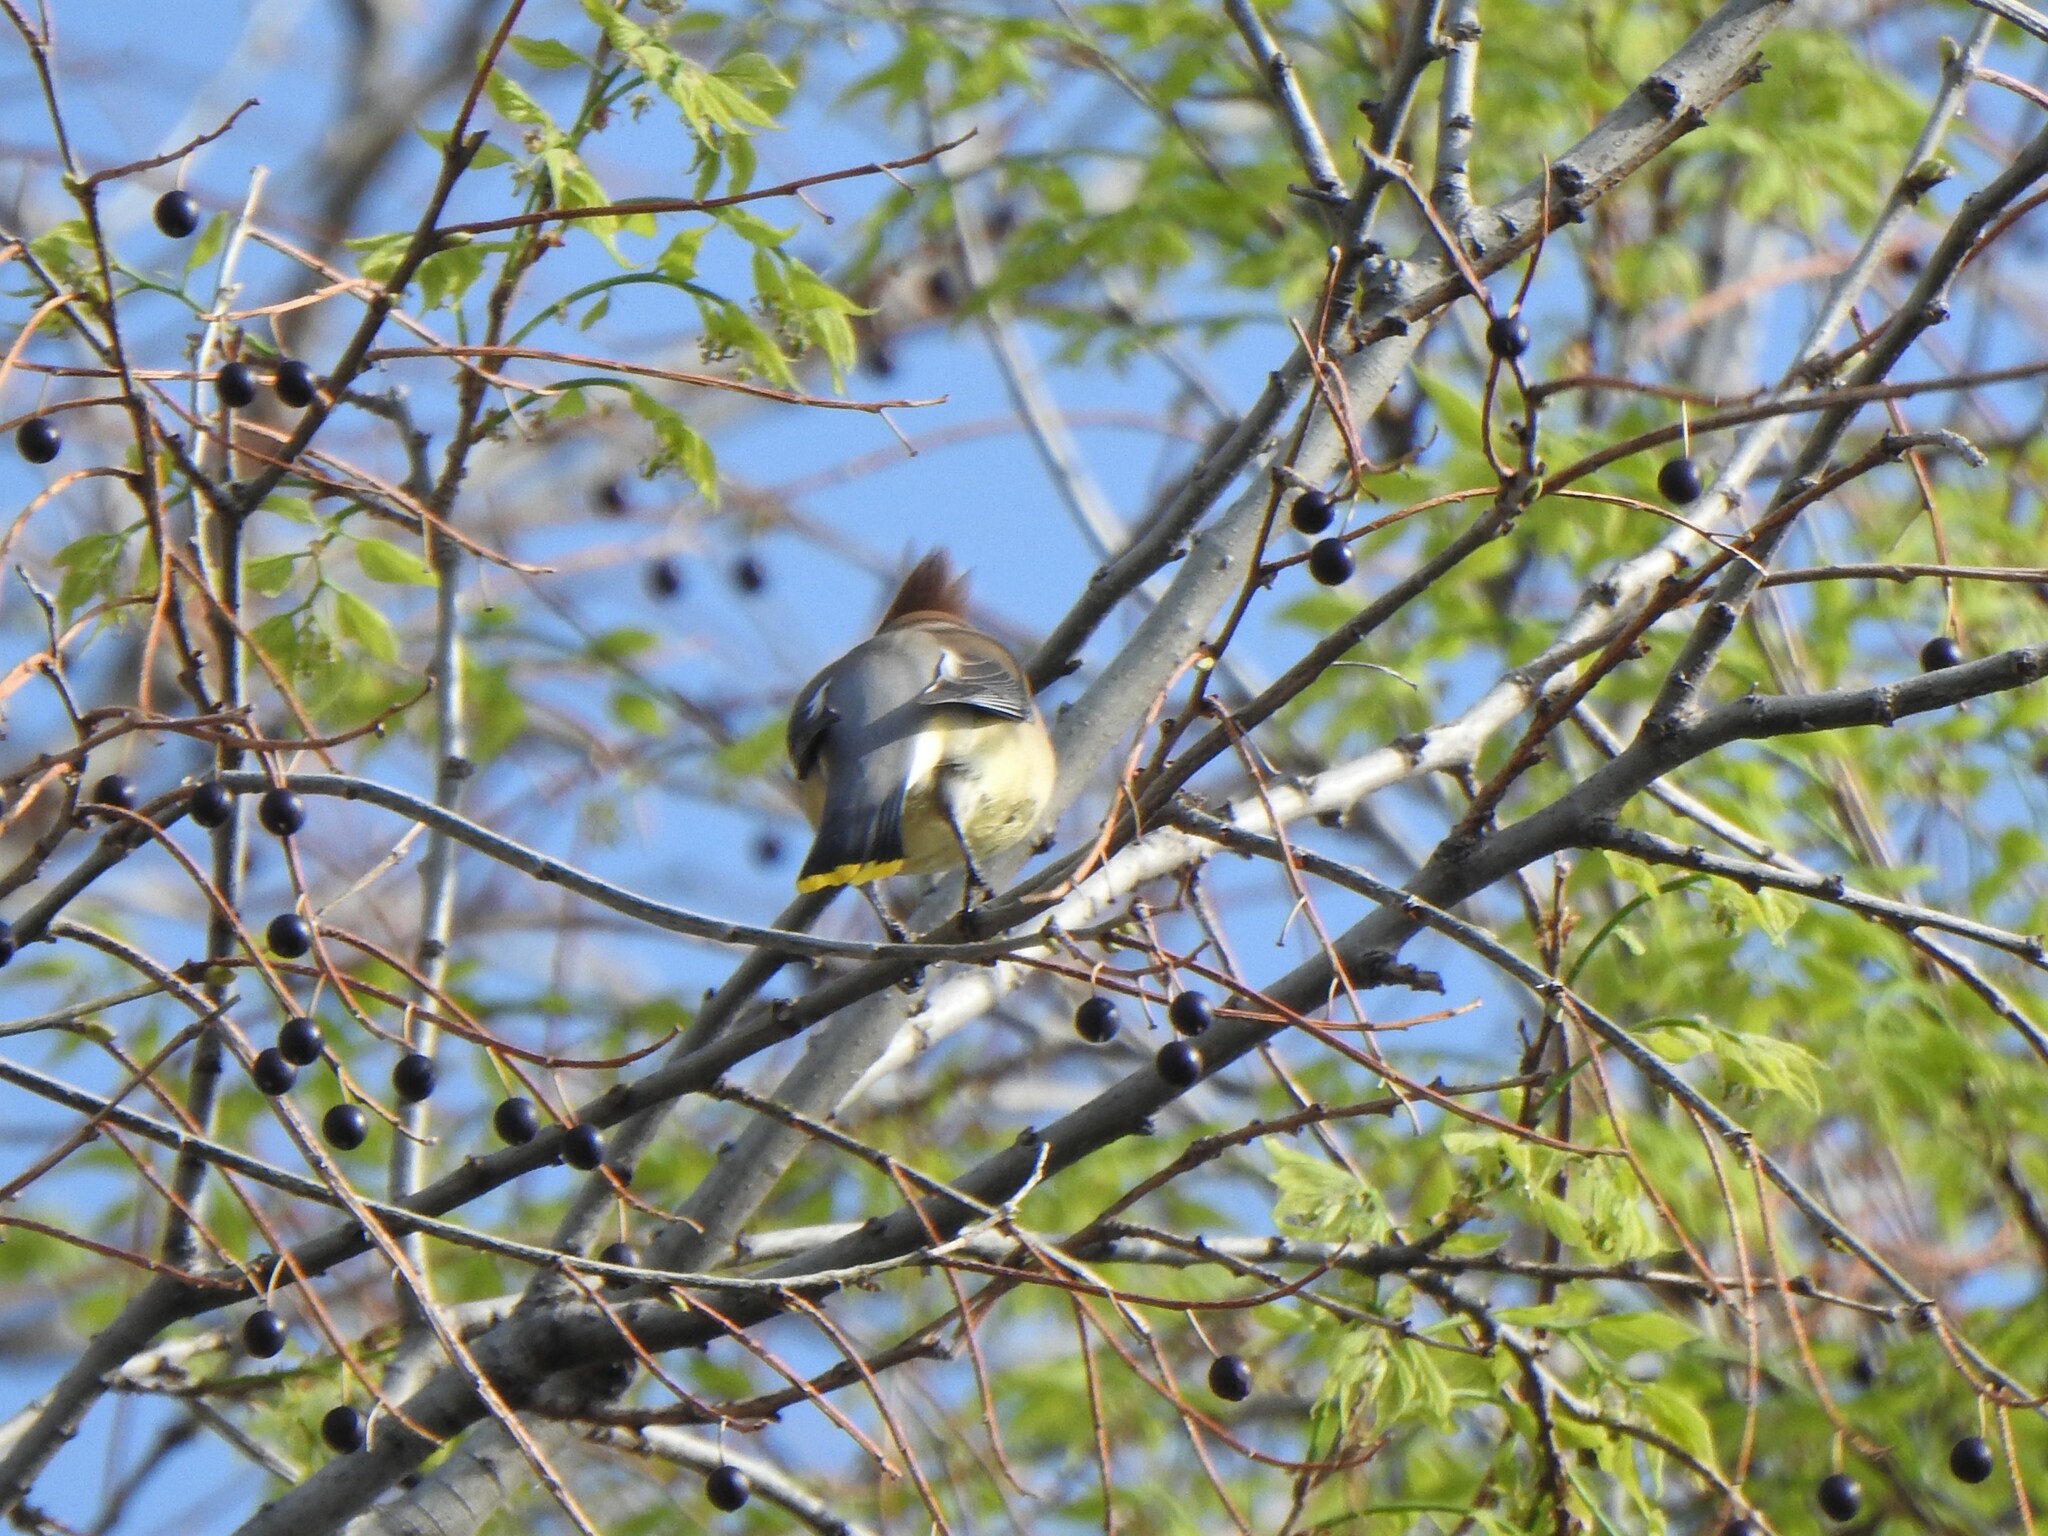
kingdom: Animalia
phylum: Chordata
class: Aves
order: Passeriformes
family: Bombycillidae
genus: Bombycilla
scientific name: Bombycilla cedrorum
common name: Cedar waxwing
